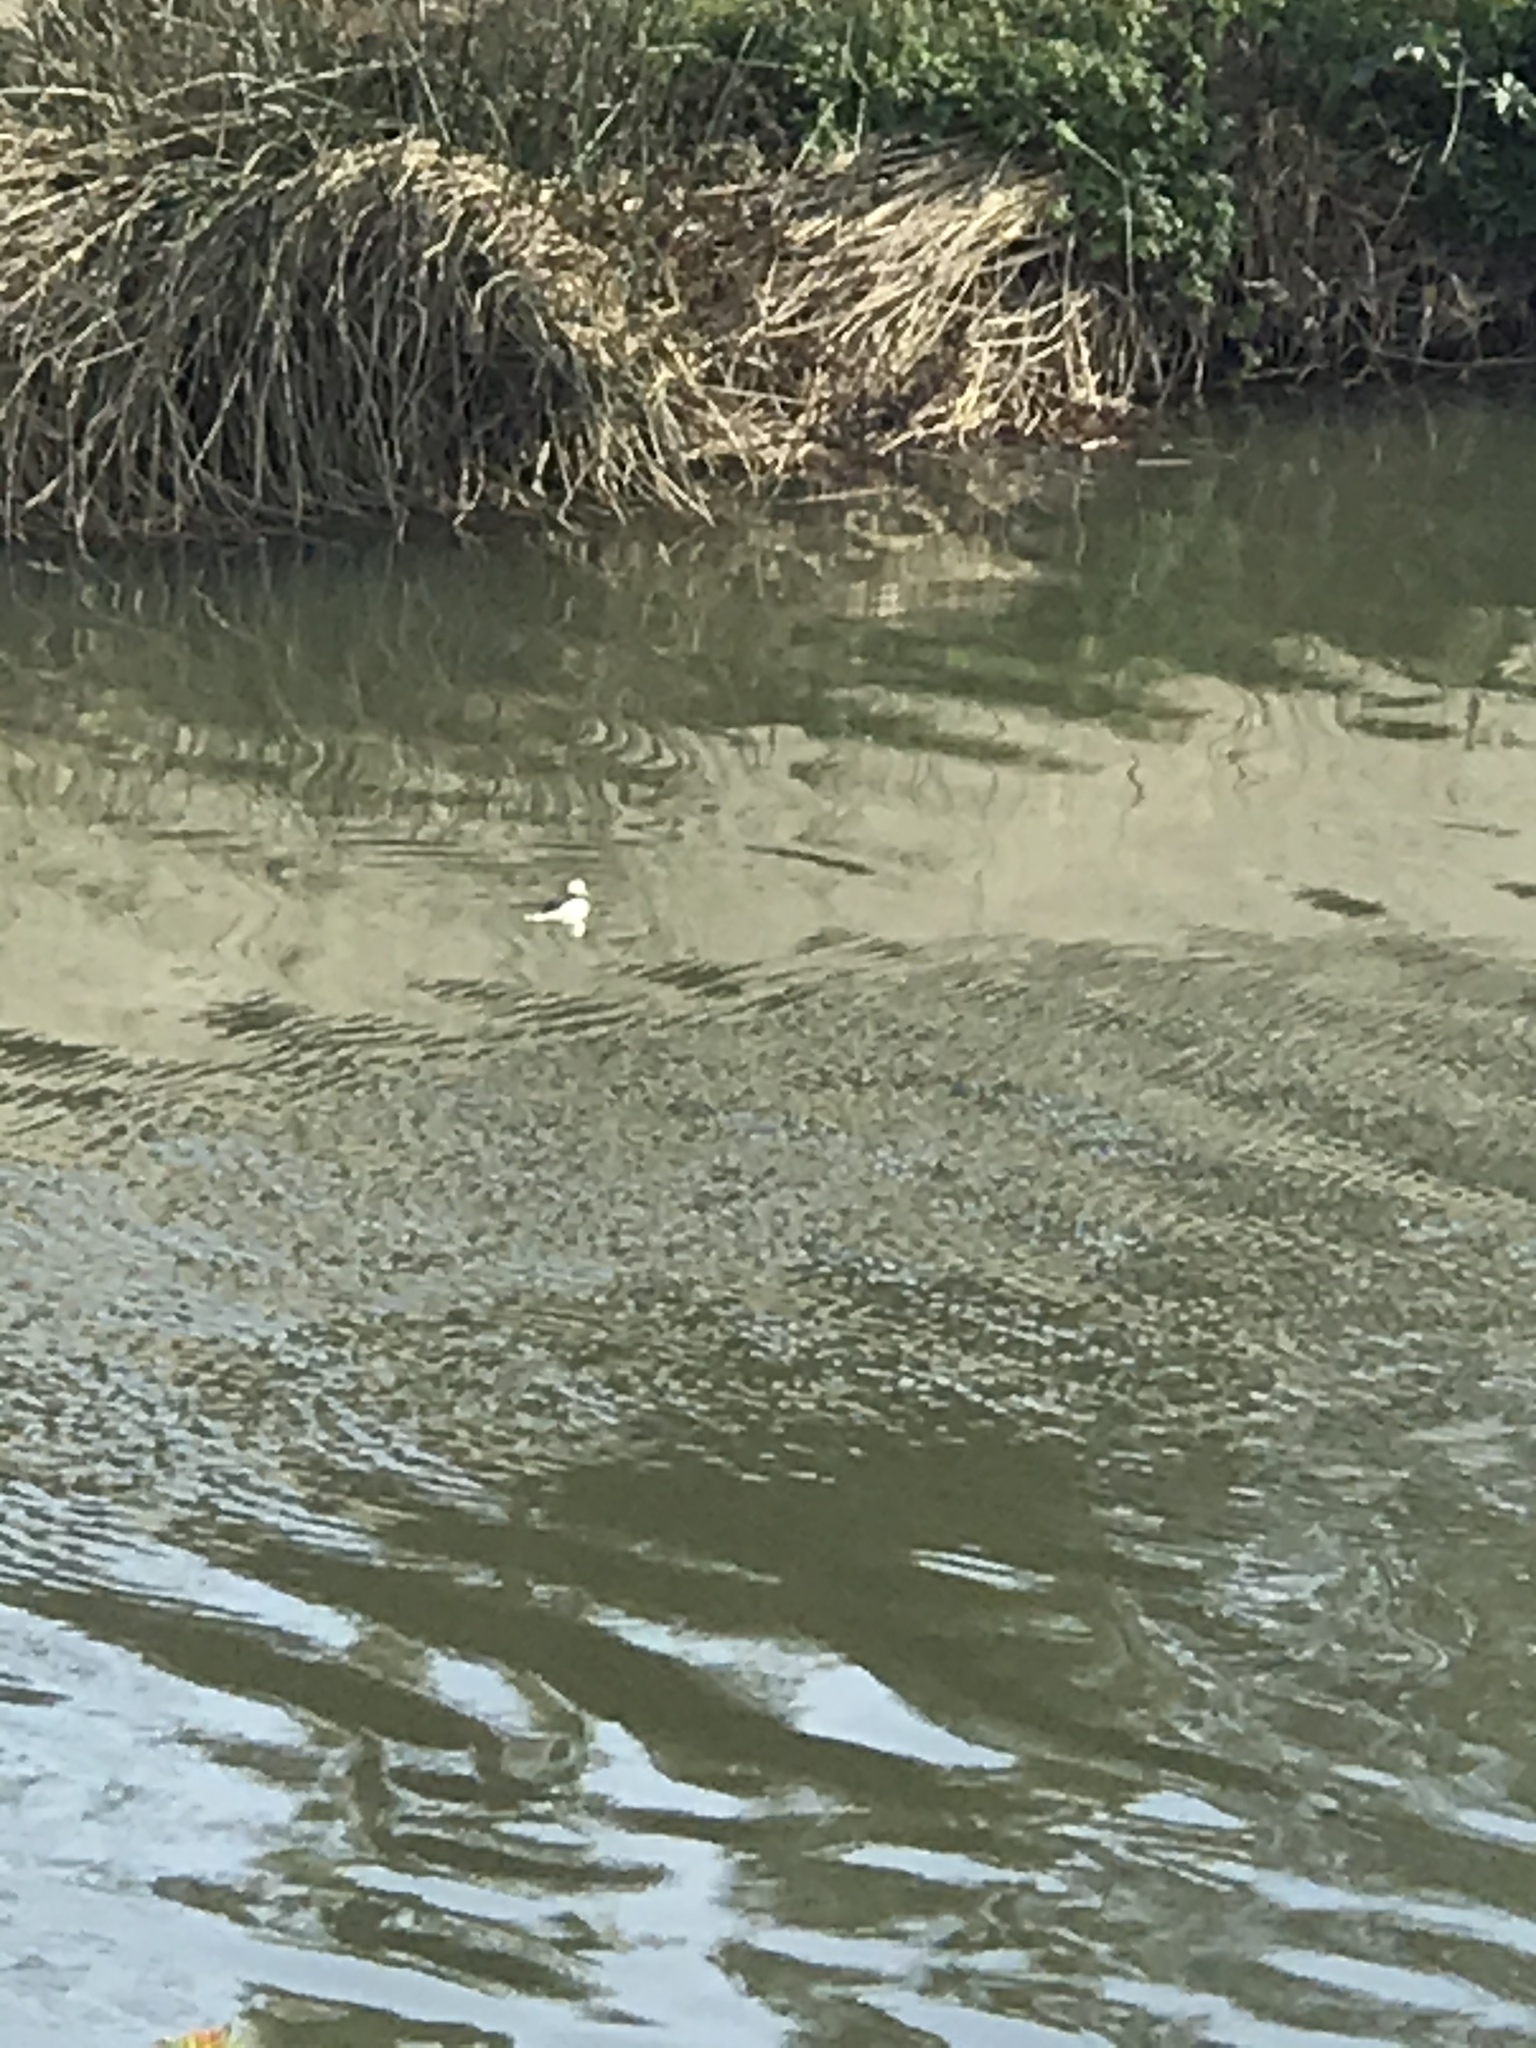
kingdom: Animalia
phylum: Chordata
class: Aves
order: Anseriformes
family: Anatidae
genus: Bucephala
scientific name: Bucephala albeola
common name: Bufflehead
